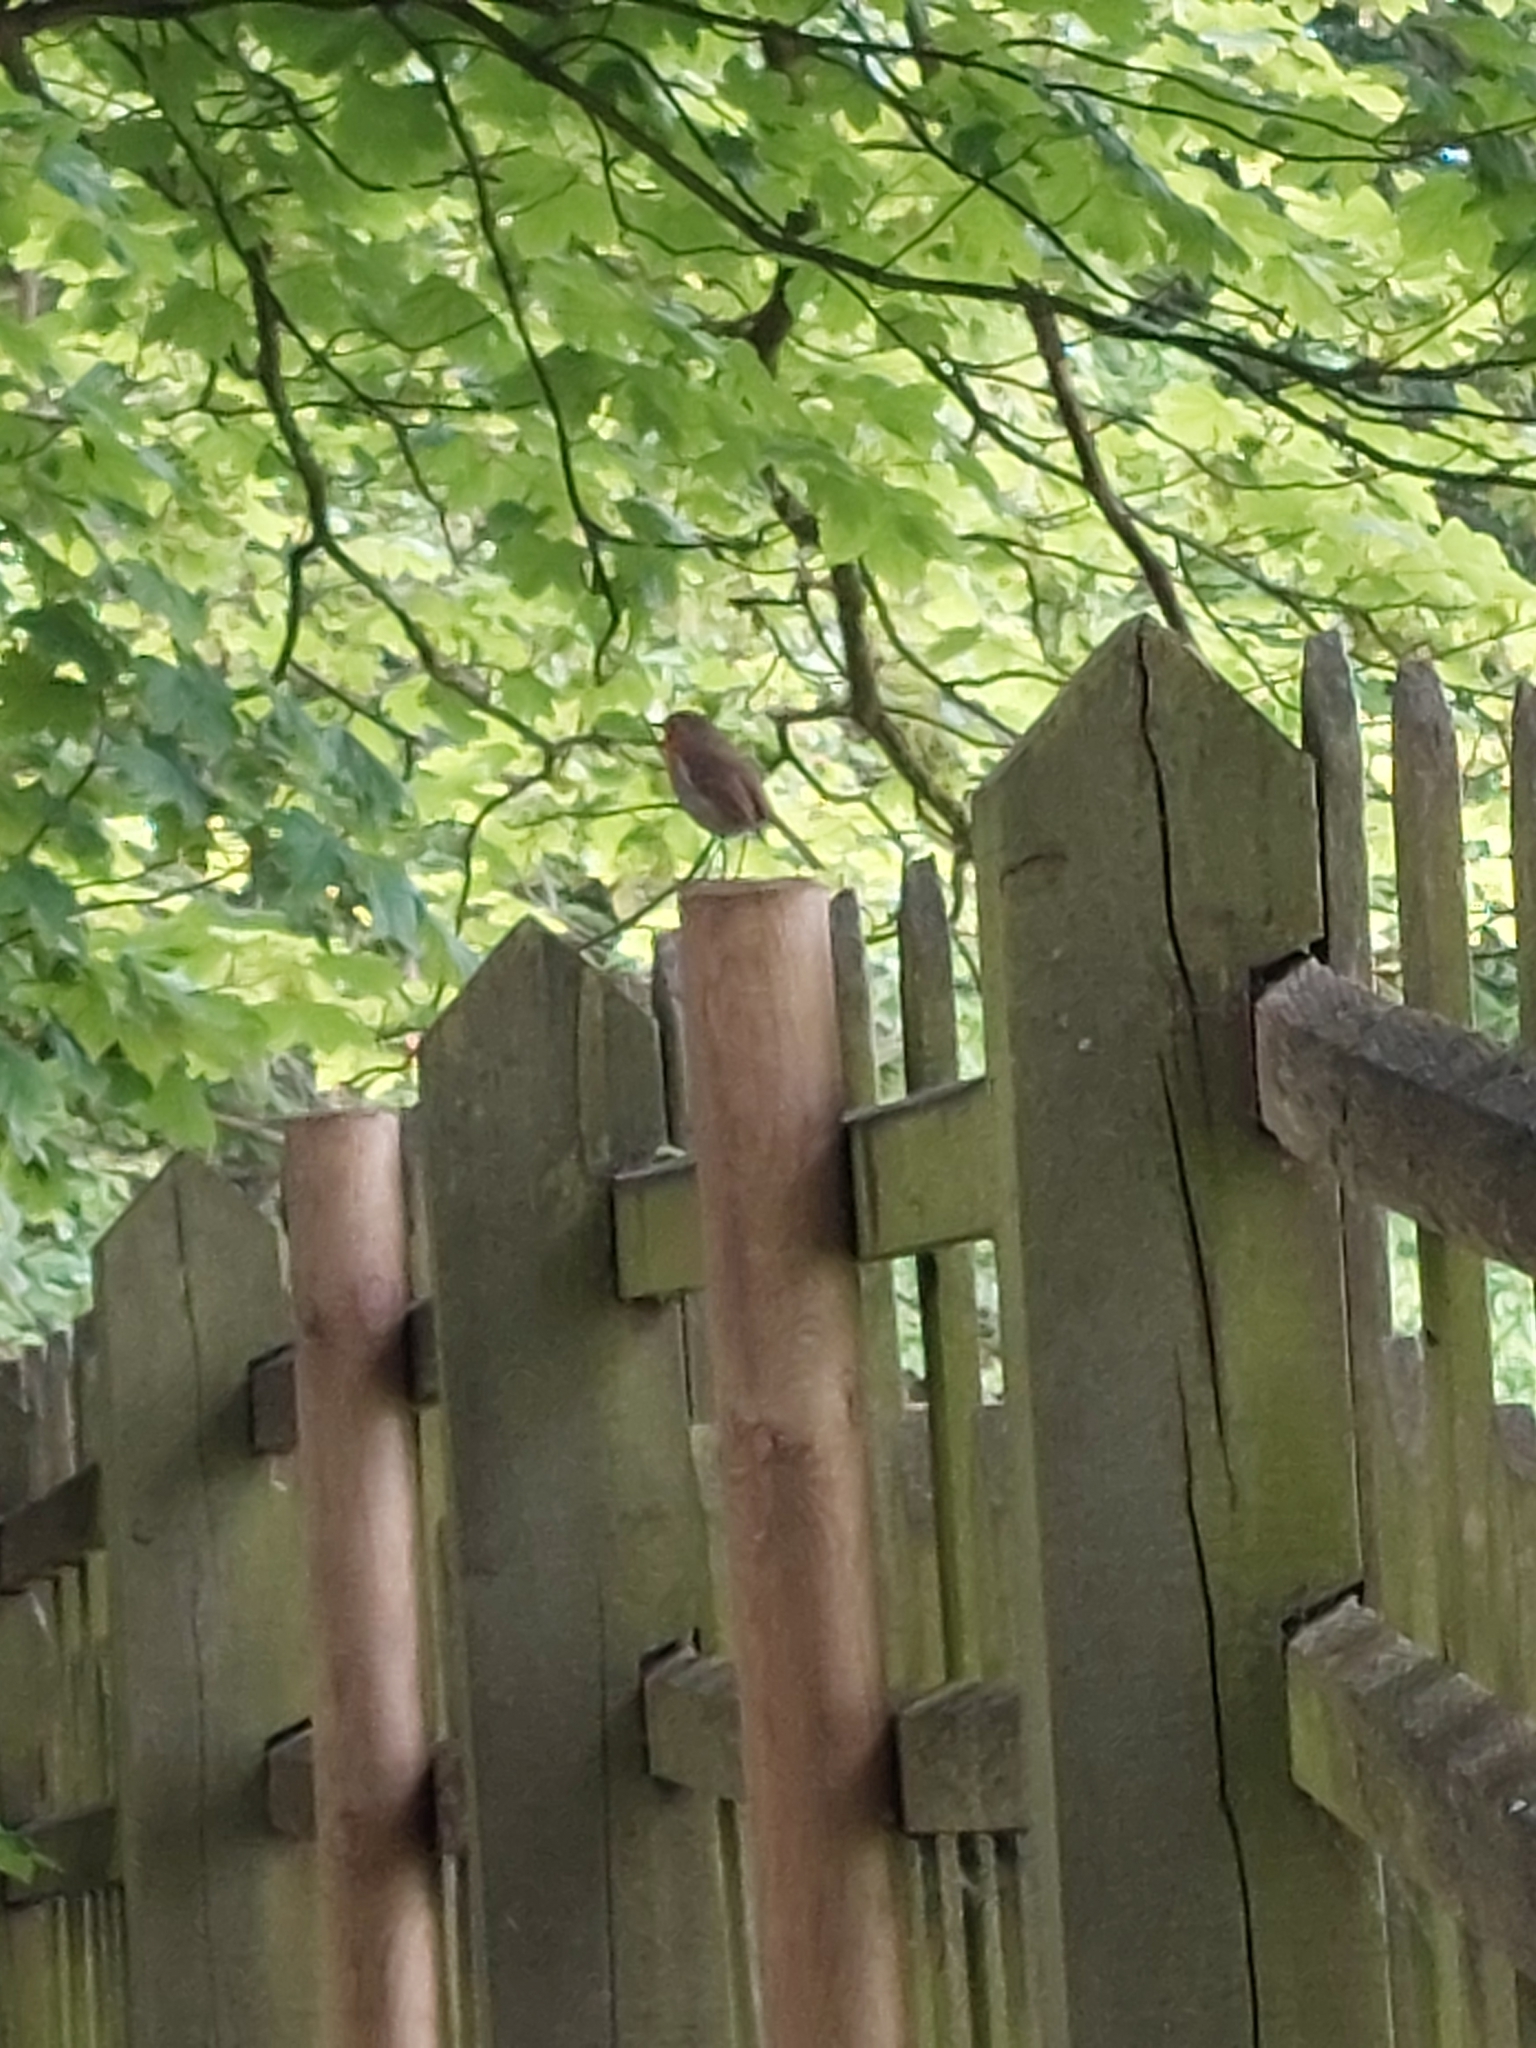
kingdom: Animalia
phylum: Chordata
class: Aves
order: Passeriformes
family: Muscicapidae
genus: Erithacus
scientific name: Erithacus rubecula
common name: European robin
